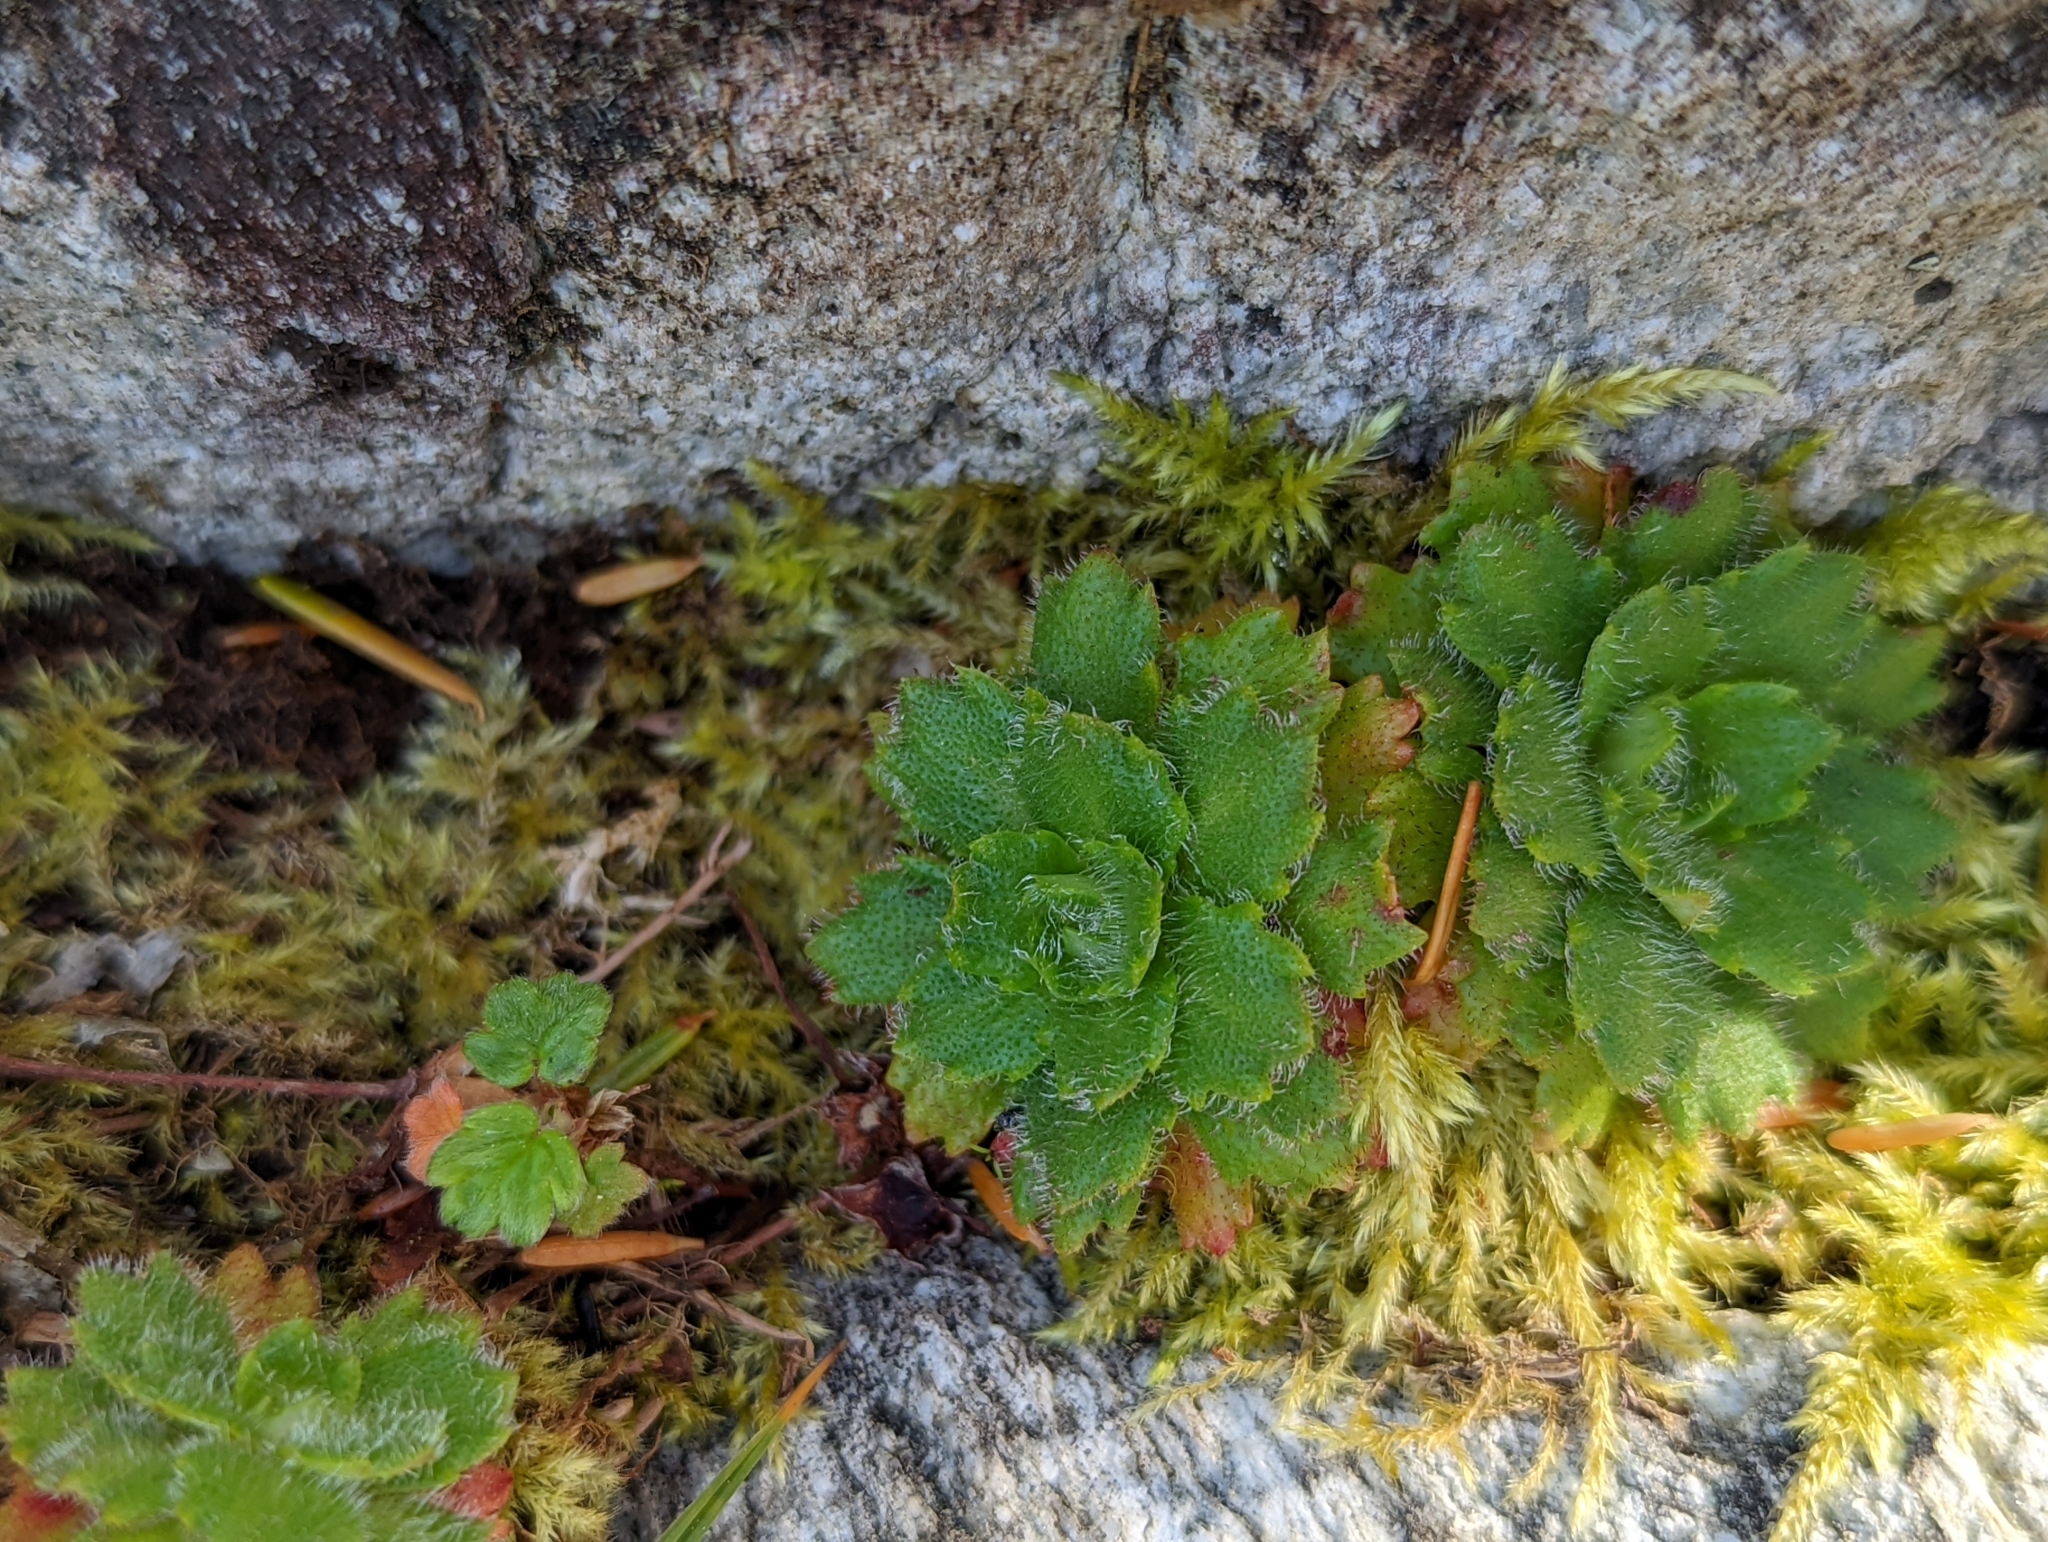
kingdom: Plantae
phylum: Tracheophyta
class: Magnoliopsida
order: Saxifragales
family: Saxifragaceae
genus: Micranthes
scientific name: Micranthes ferruginea
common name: Rusty saxifrage
